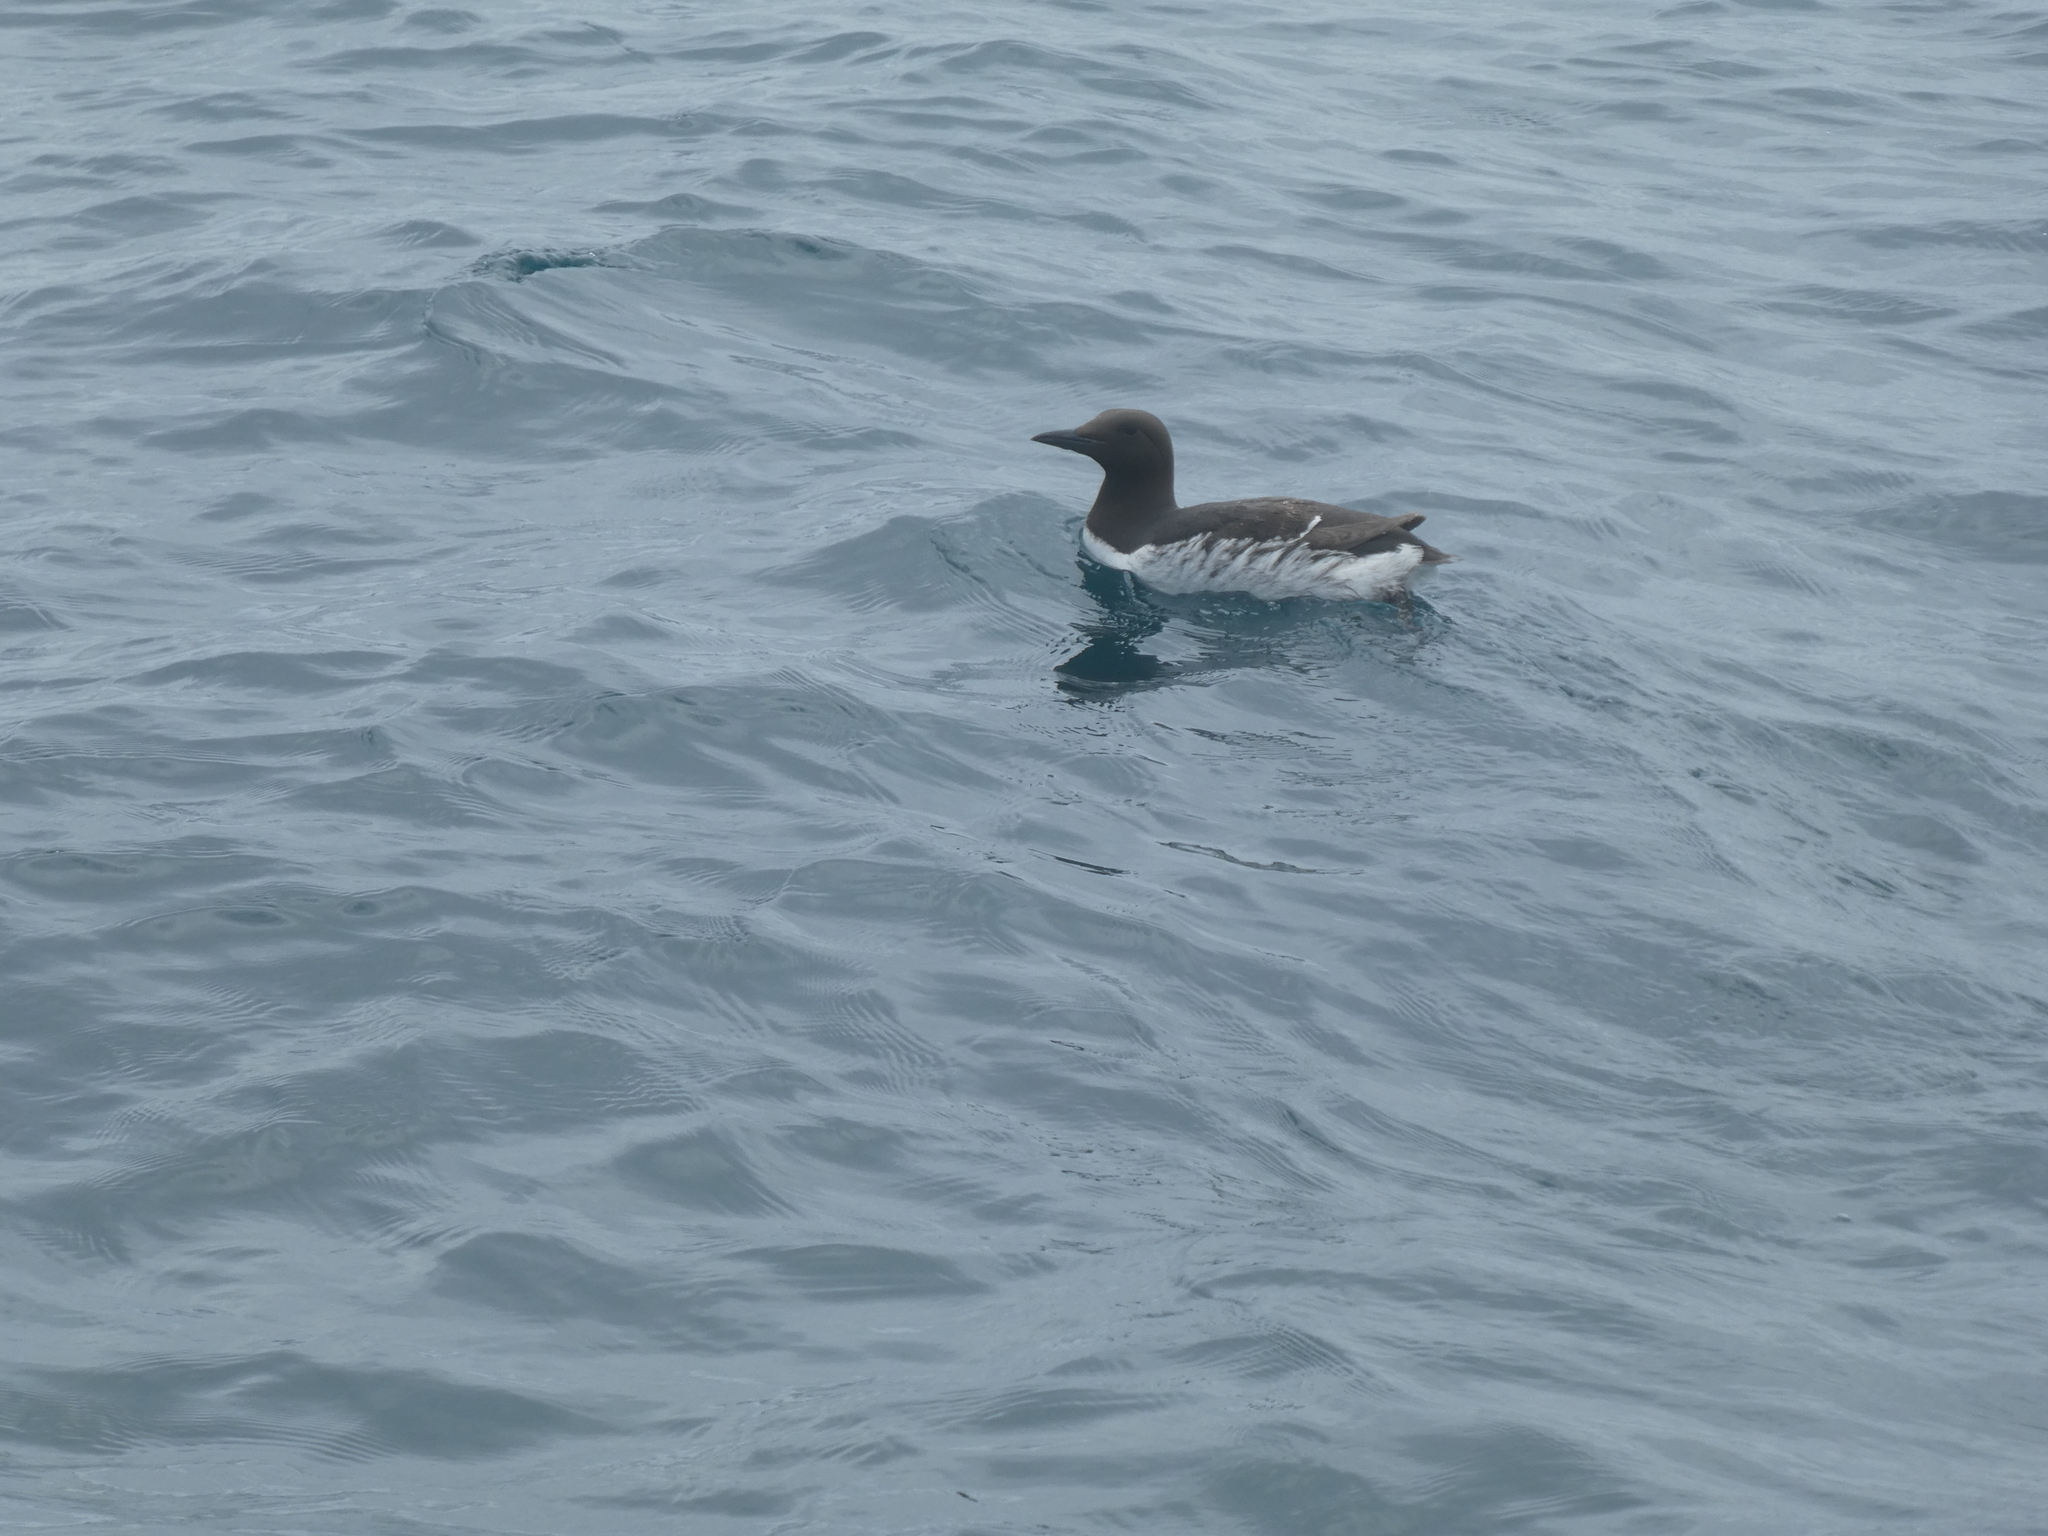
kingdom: Animalia
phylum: Chordata
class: Aves
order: Charadriiformes
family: Alcidae
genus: Uria
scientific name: Uria aalge
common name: Common murre
